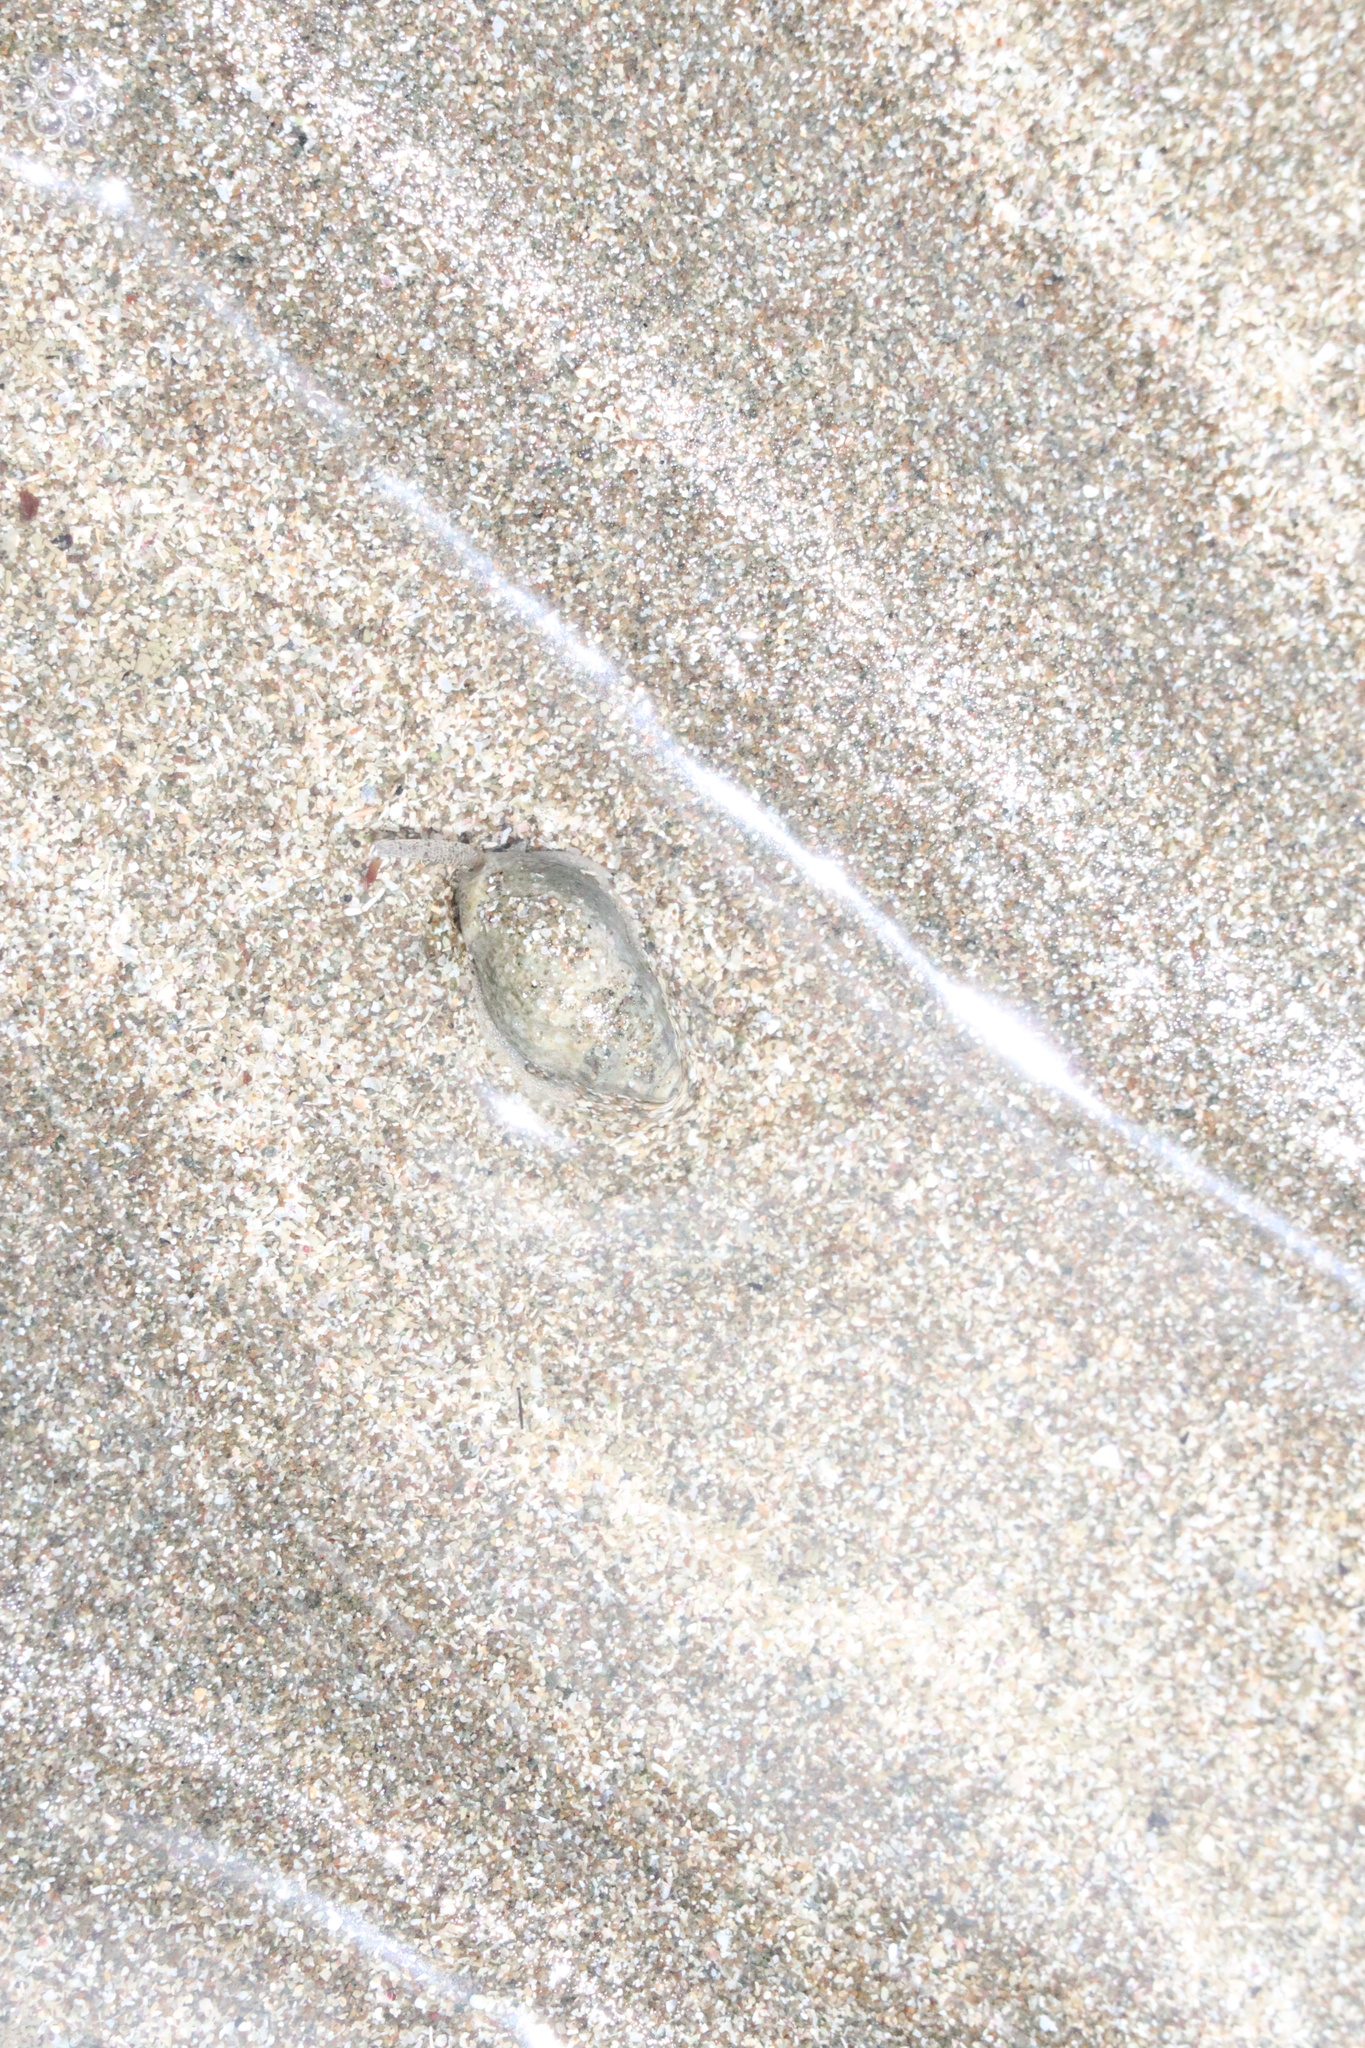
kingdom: Animalia
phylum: Mollusca
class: Gastropoda
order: Neogastropoda
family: Cominellidae
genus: Cominella
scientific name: Cominella glandiformis
